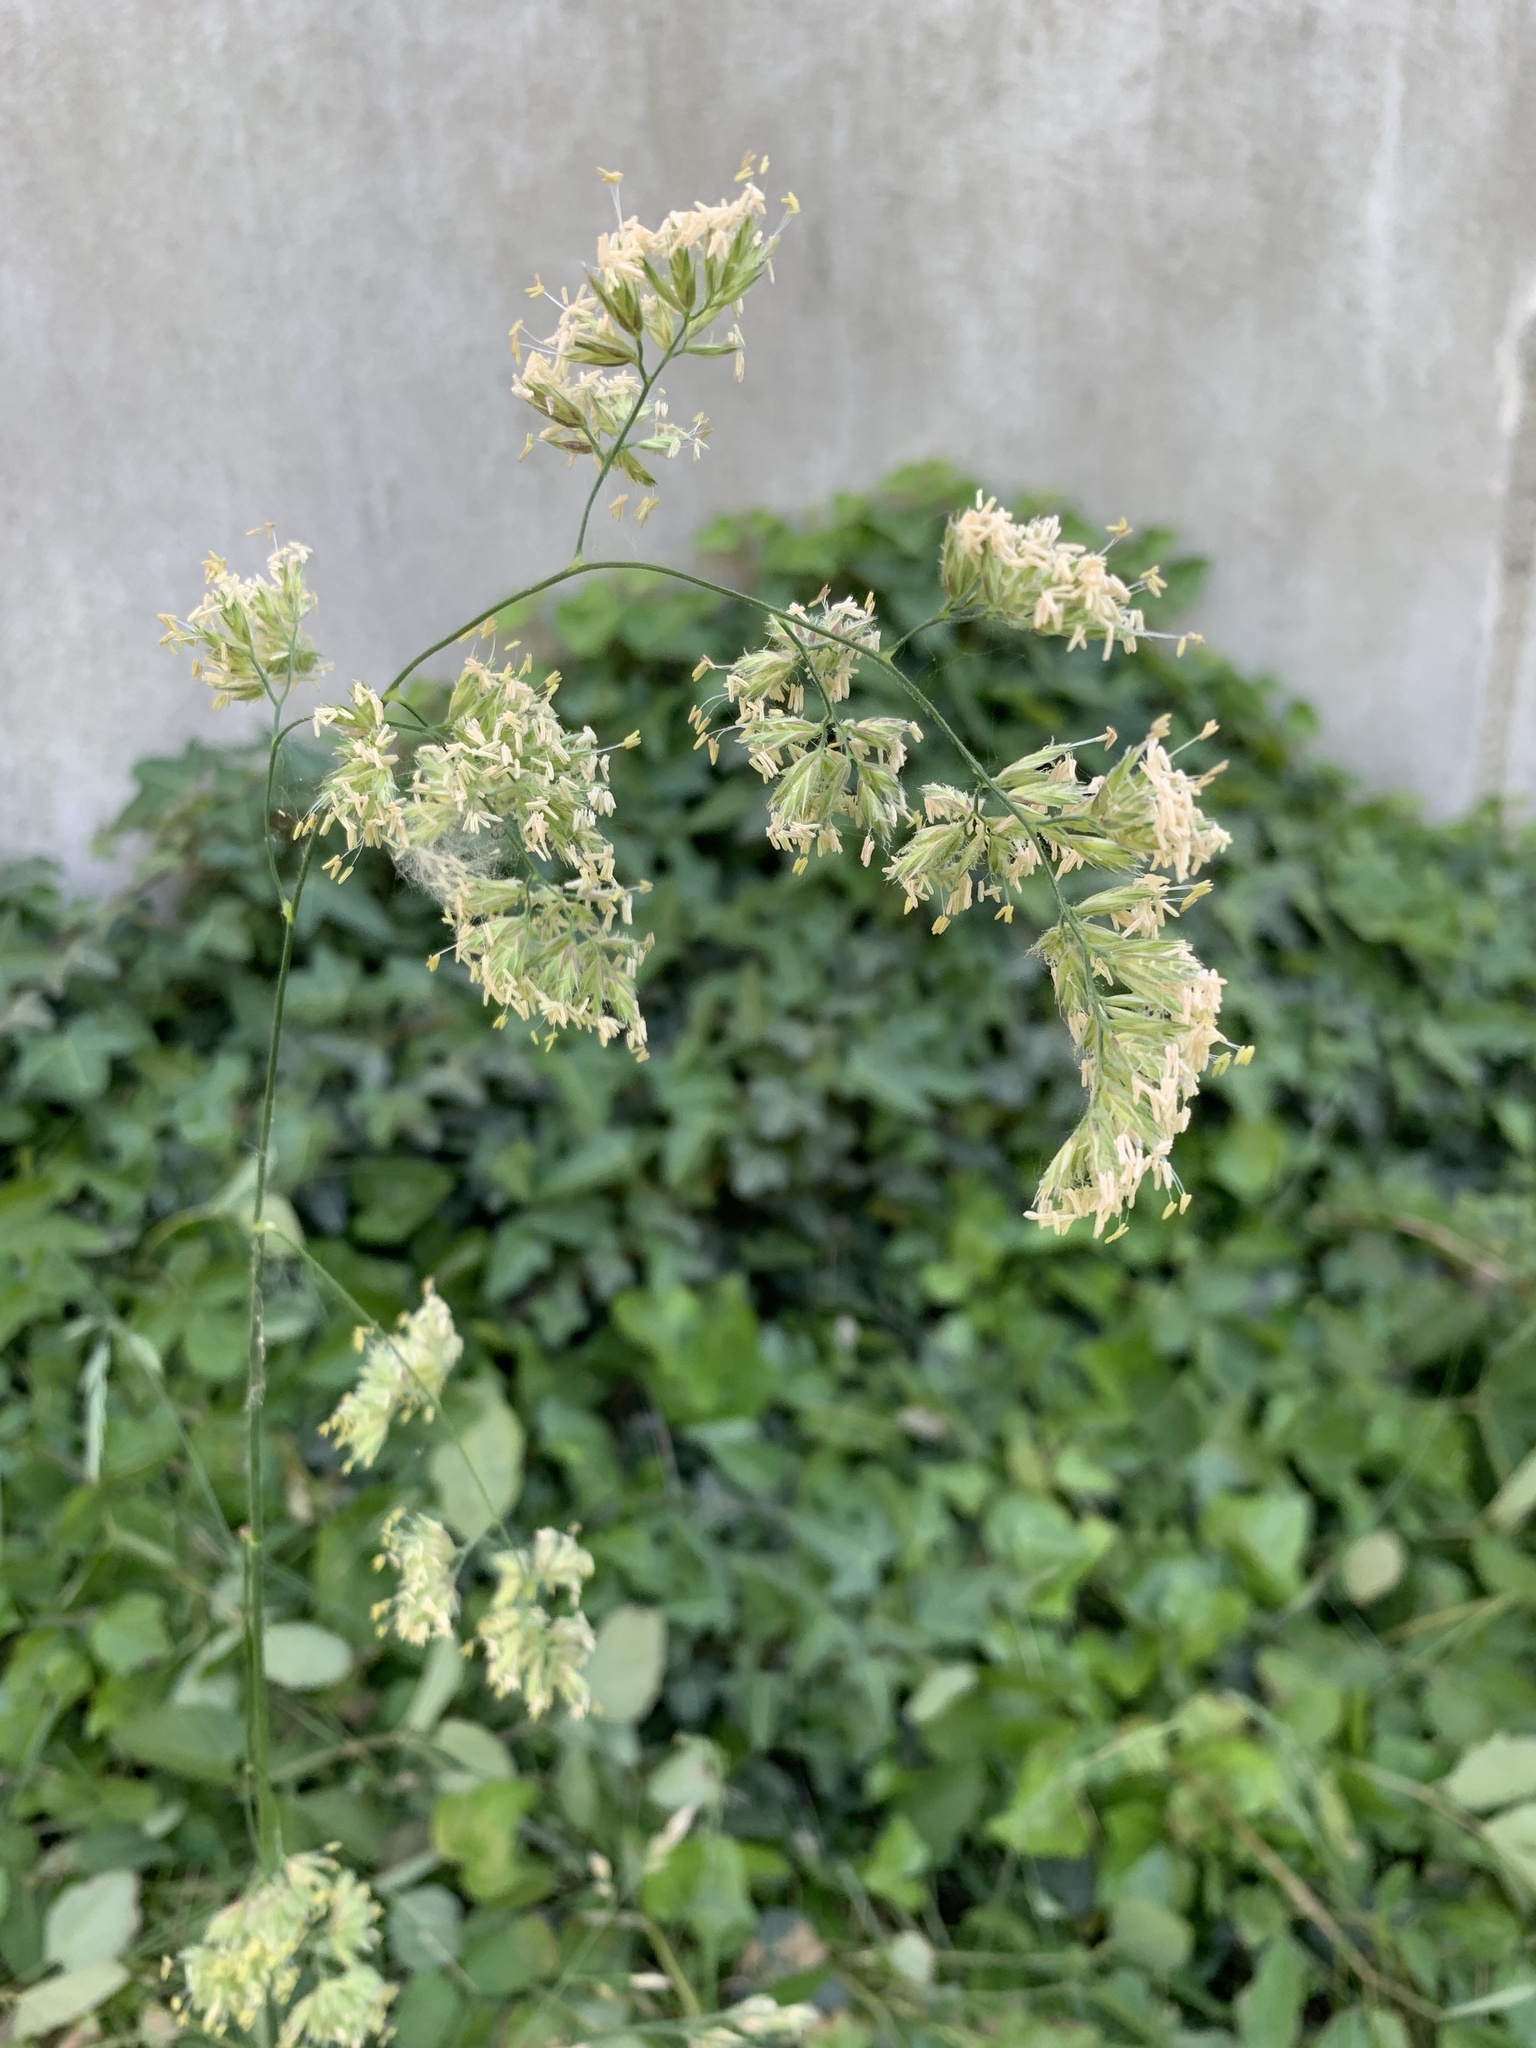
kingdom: Plantae
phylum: Tracheophyta
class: Liliopsida
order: Poales
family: Poaceae
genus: Dactylis
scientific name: Dactylis glomerata
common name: Orchardgrass
